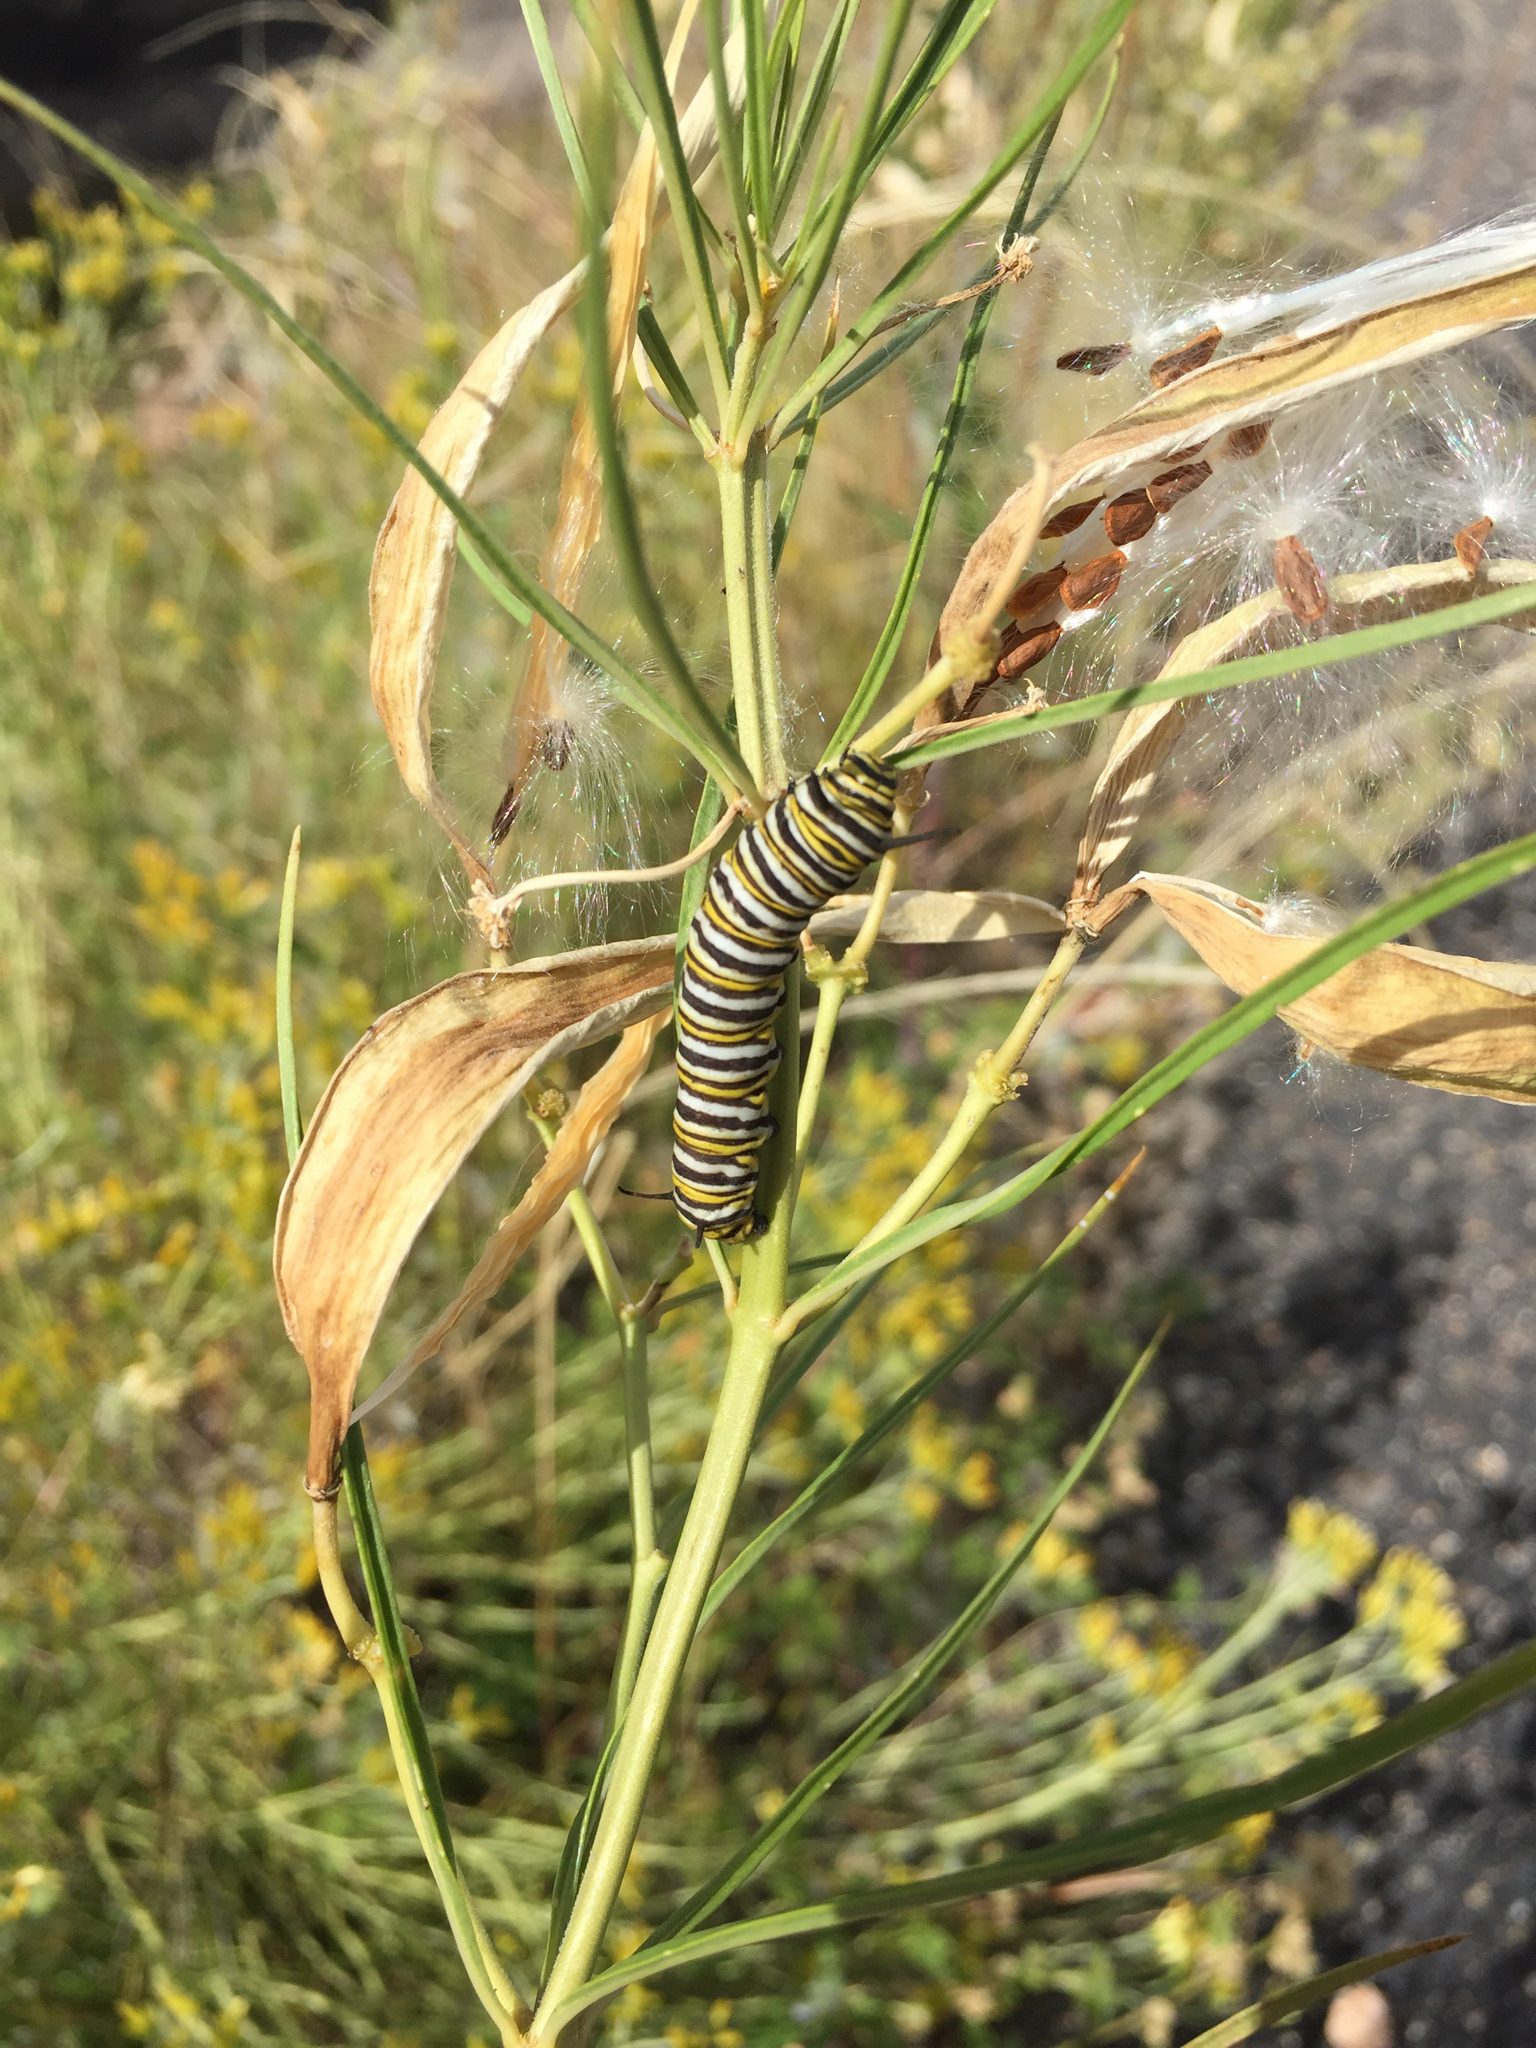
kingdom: Animalia
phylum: Arthropoda
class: Insecta
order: Lepidoptera
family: Nymphalidae
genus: Danaus
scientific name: Danaus plexippus
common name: Monarch
